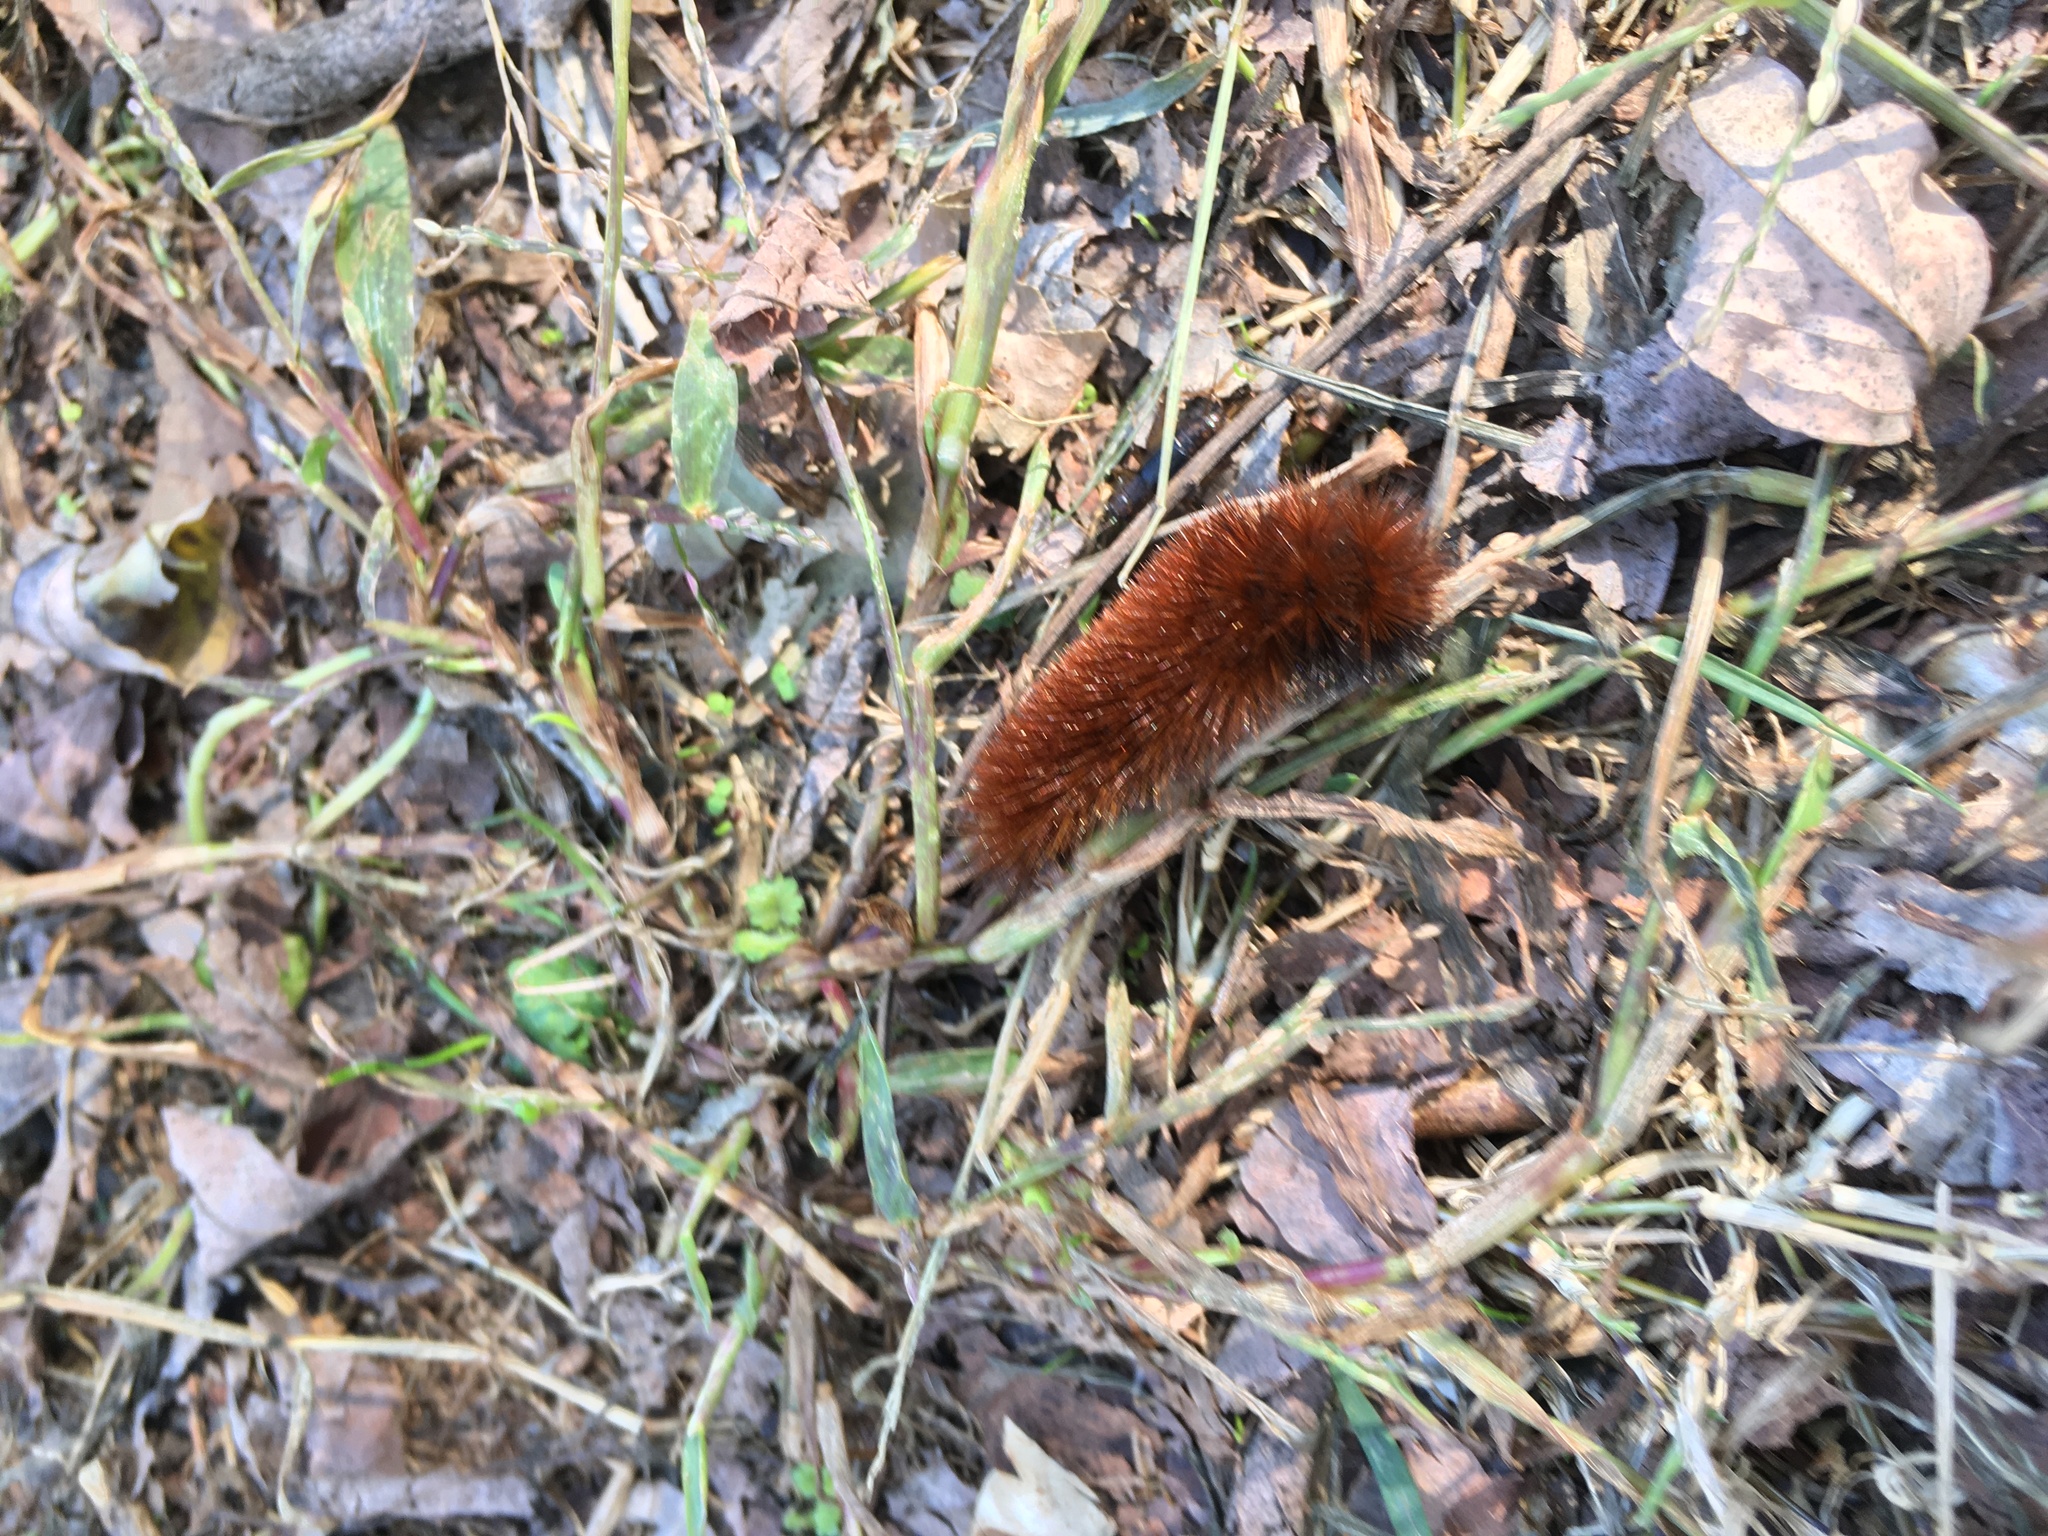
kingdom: Animalia
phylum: Arthropoda
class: Insecta
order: Lepidoptera
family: Erebidae
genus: Pyrrharctia
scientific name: Pyrrharctia isabella
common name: Isabella tiger moth
